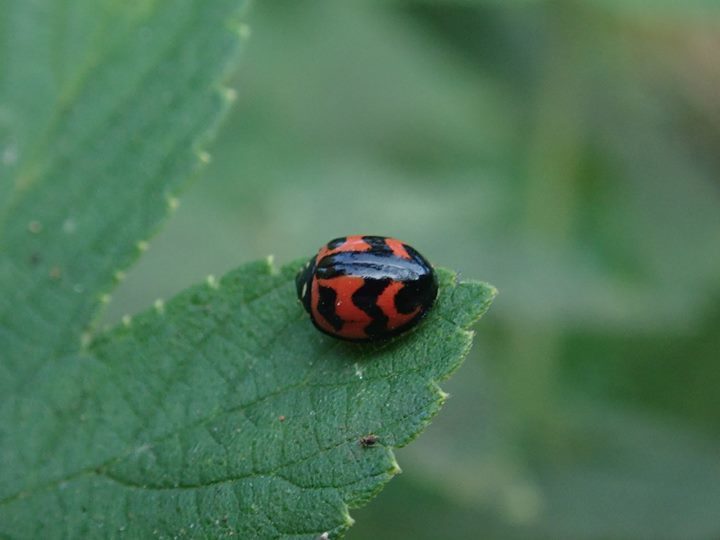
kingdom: Animalia
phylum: Arthropoda
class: Insecta
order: Coleoptera
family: Coccinellidae
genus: Cheilomenes
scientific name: Cheilomenes sexmaculata
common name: Ladybird beetle
